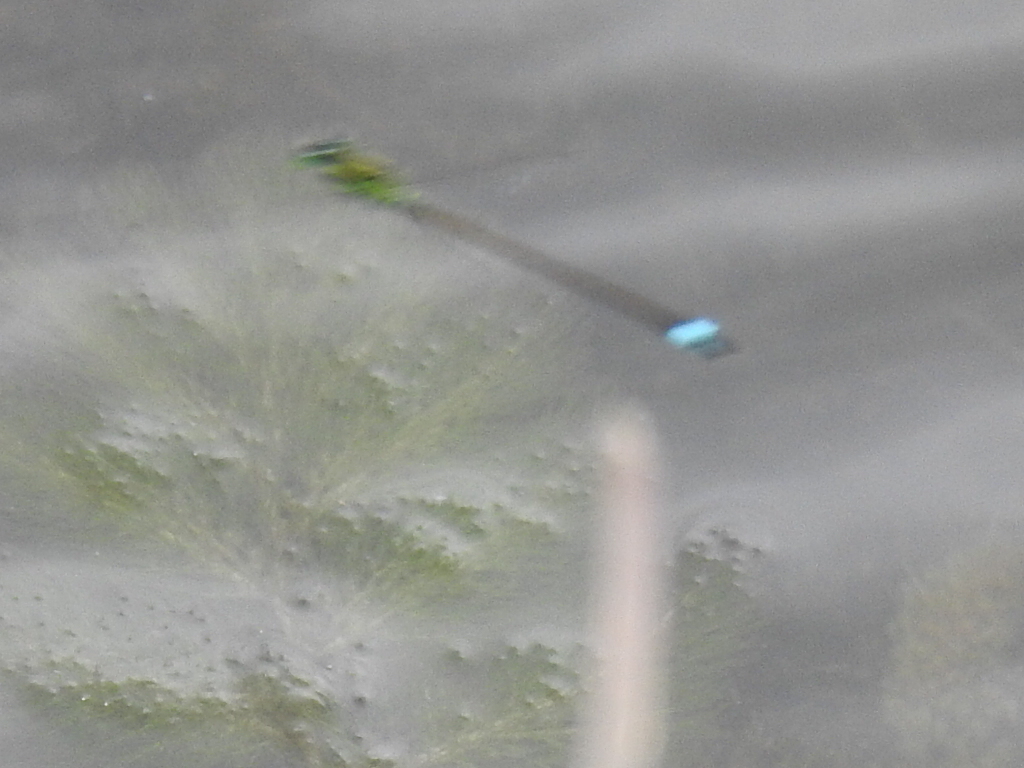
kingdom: Animalia
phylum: Arthropoda
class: Insecta
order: Odonata
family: Coenagrionidae
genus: Ischnura
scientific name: Ischnura ramburii
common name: Rambur's forktail
